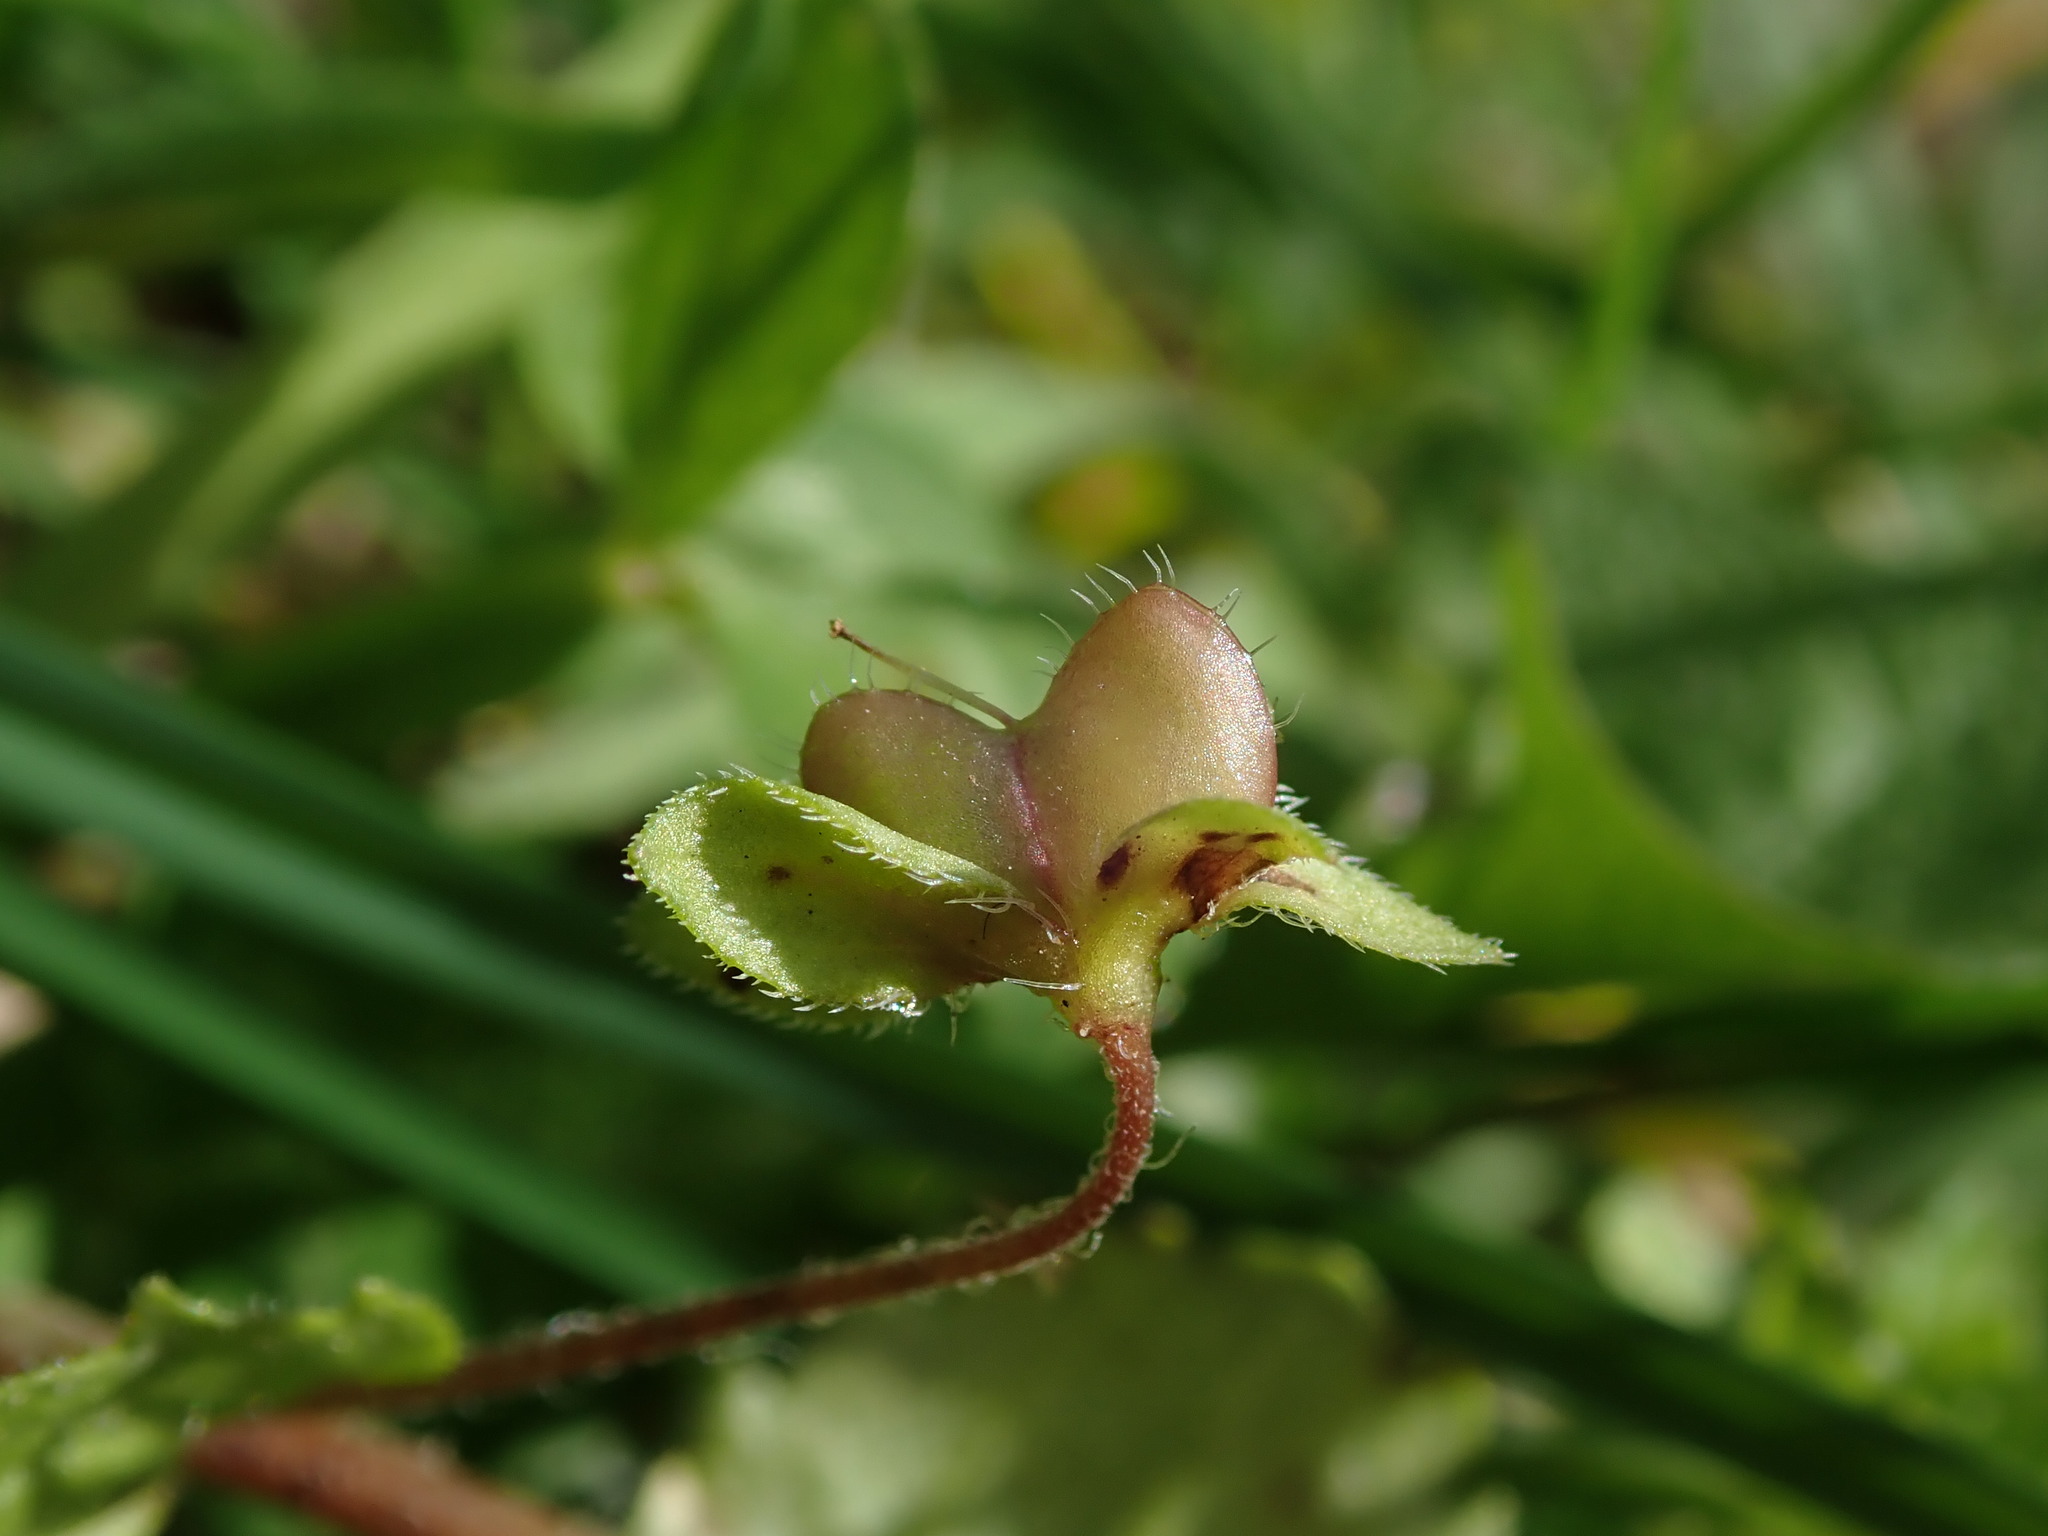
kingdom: Plantae
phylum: Tracheophyta
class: Magnoliopsida
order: Lamiales
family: Plantaginaceae
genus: Veronica
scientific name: Veronica persica
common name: Common field-speedwell
